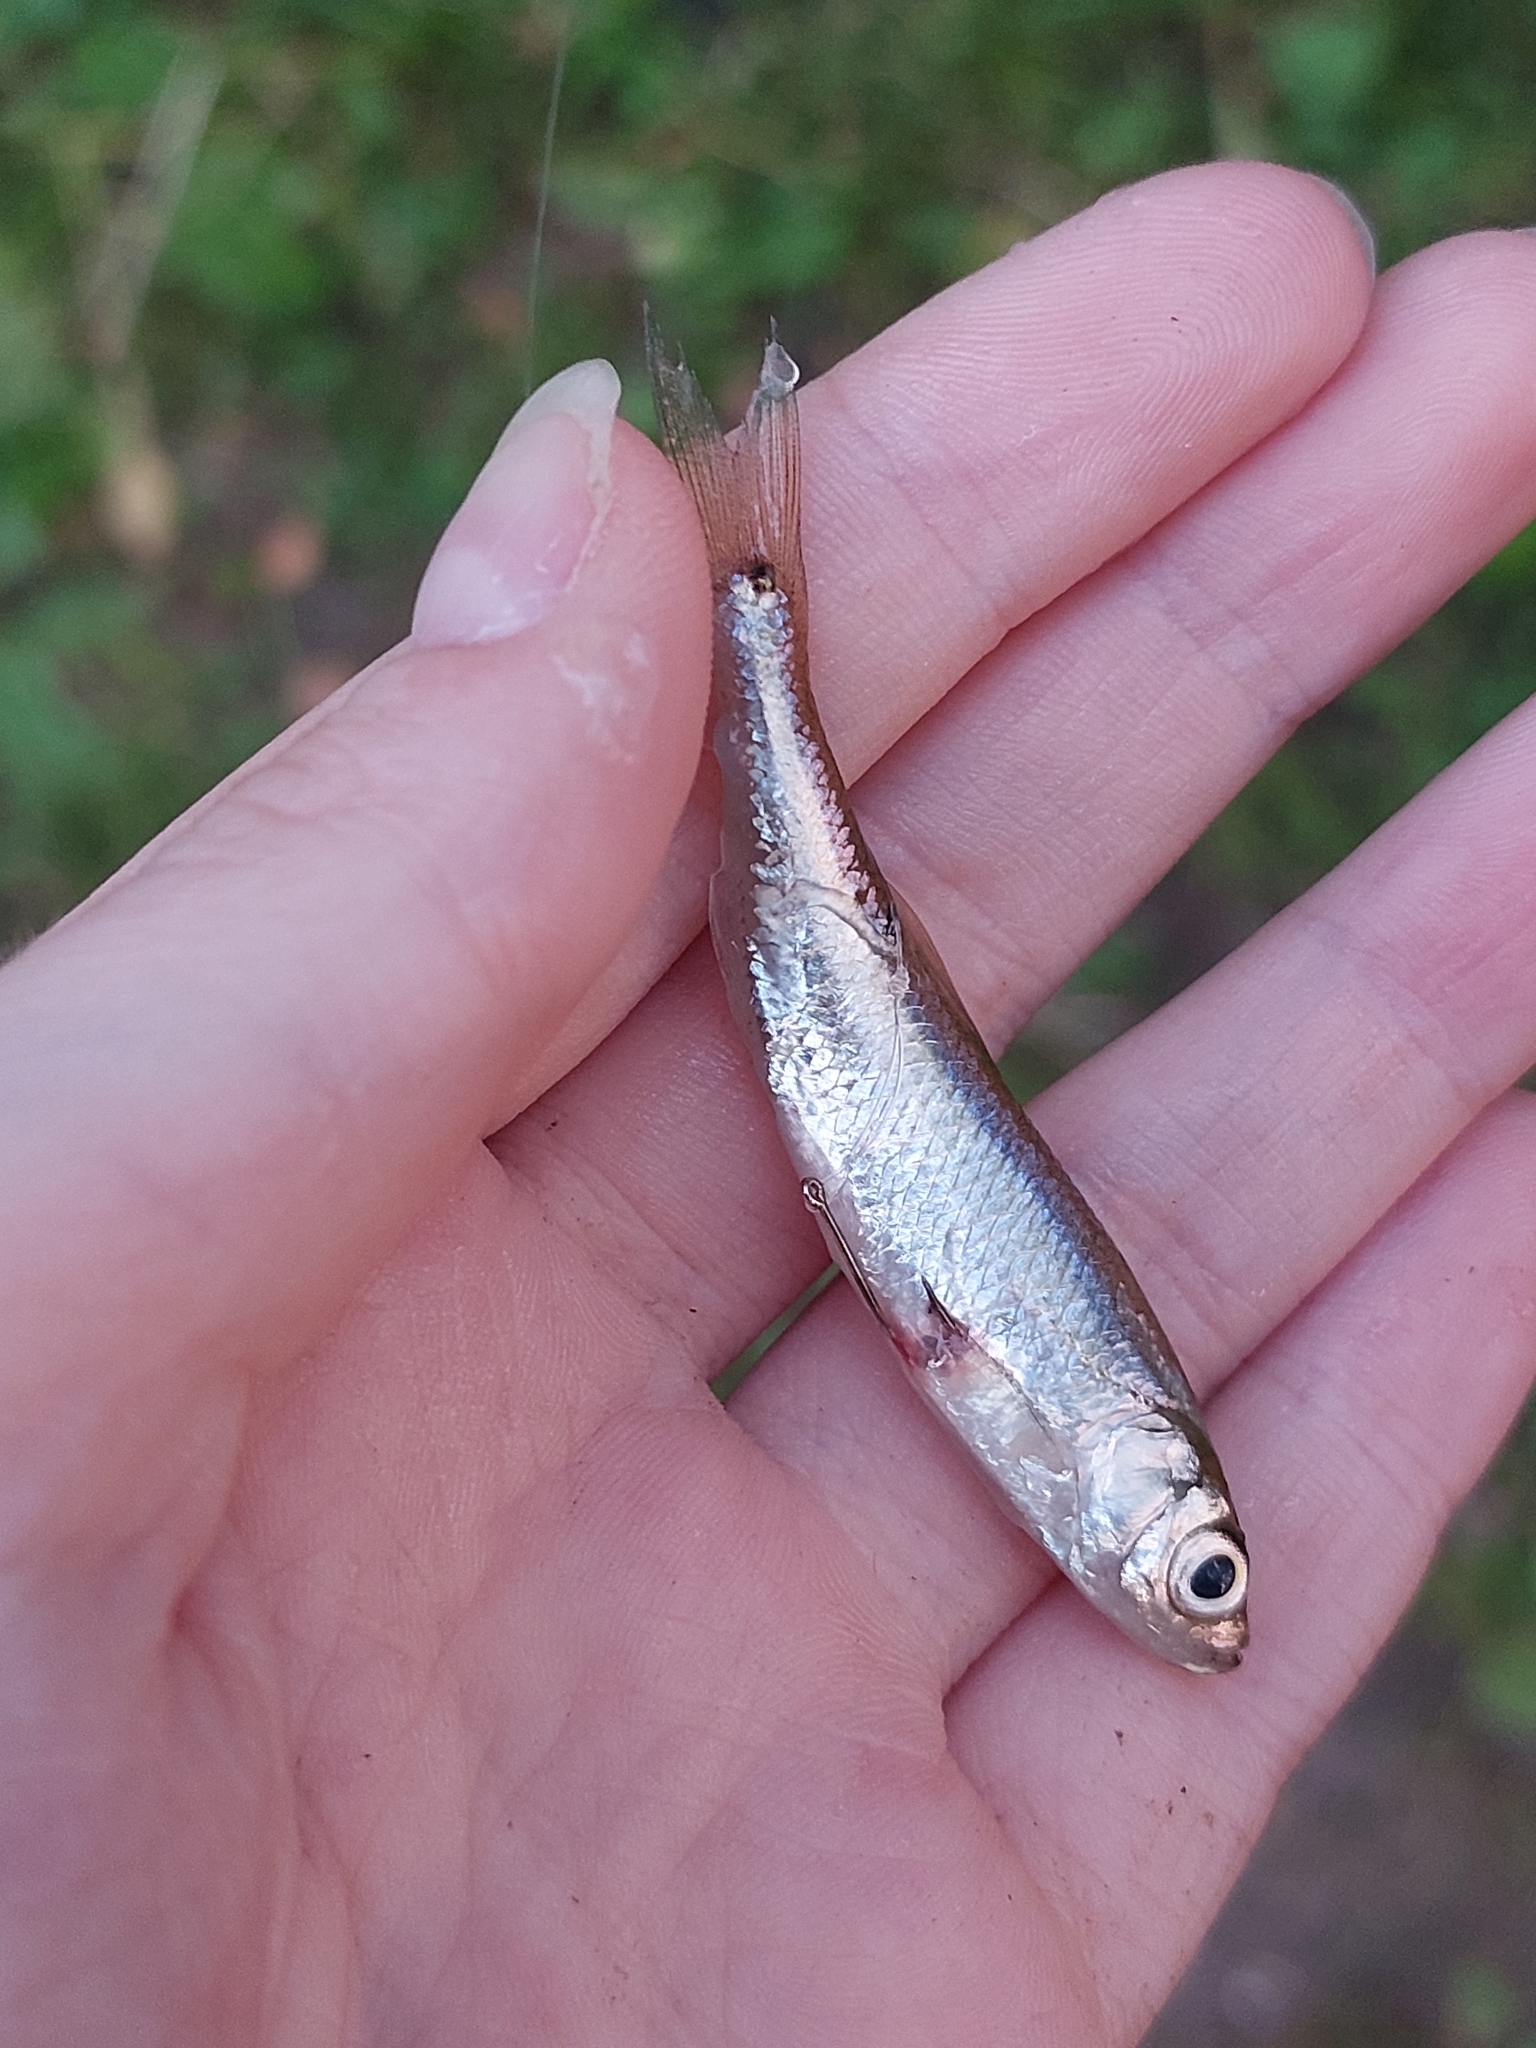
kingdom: Animalia
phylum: Chordata
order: Cypriniformes
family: Cyprinidae
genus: Leucaspius
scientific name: Leucaspius delineatus
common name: Sunbleak
